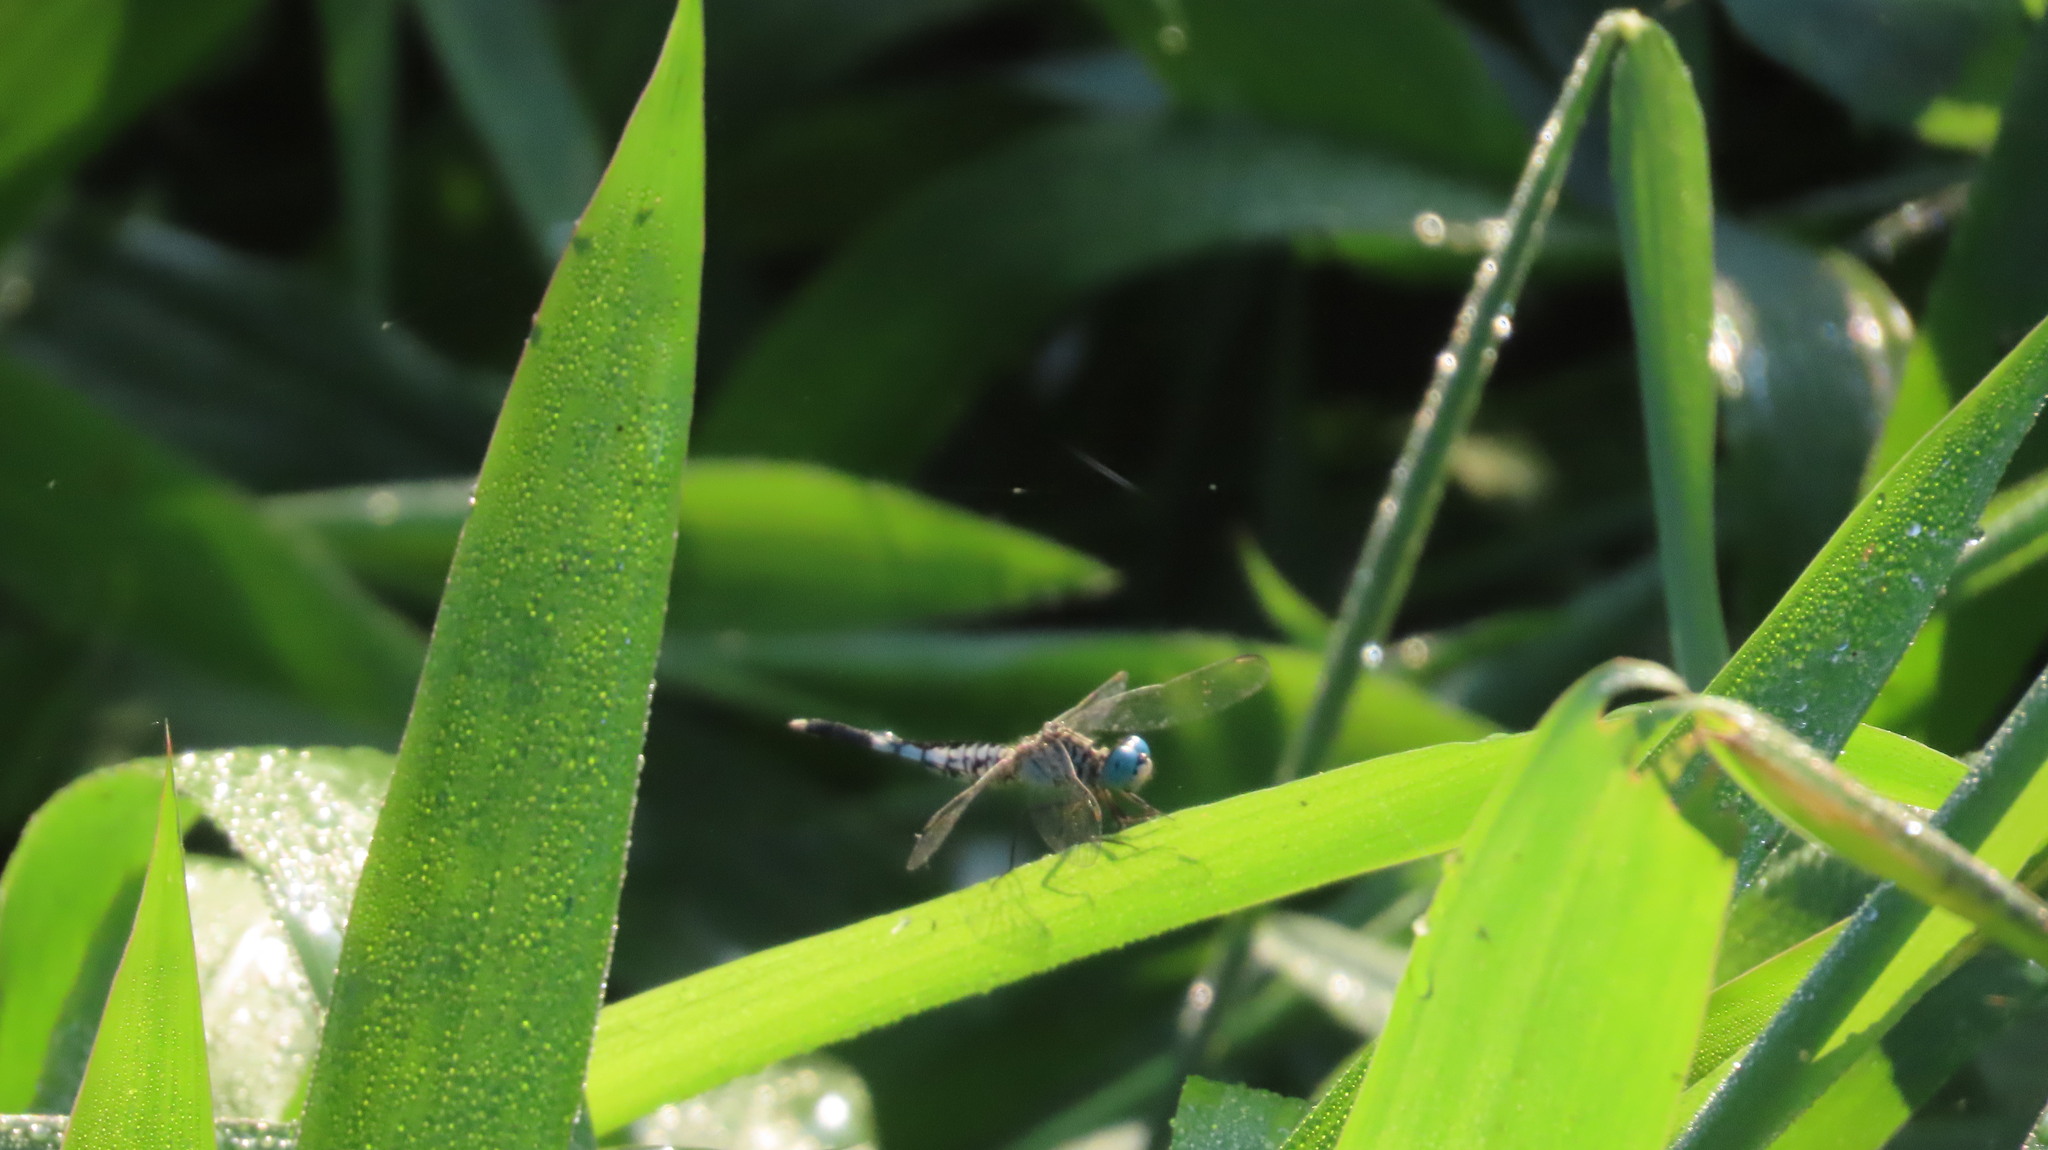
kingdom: Animalia
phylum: Arthropoda
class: Insecta
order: Odonata
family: Libellulidae
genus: Acisoma
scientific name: Acisoma panorpoides
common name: Asian pintail
